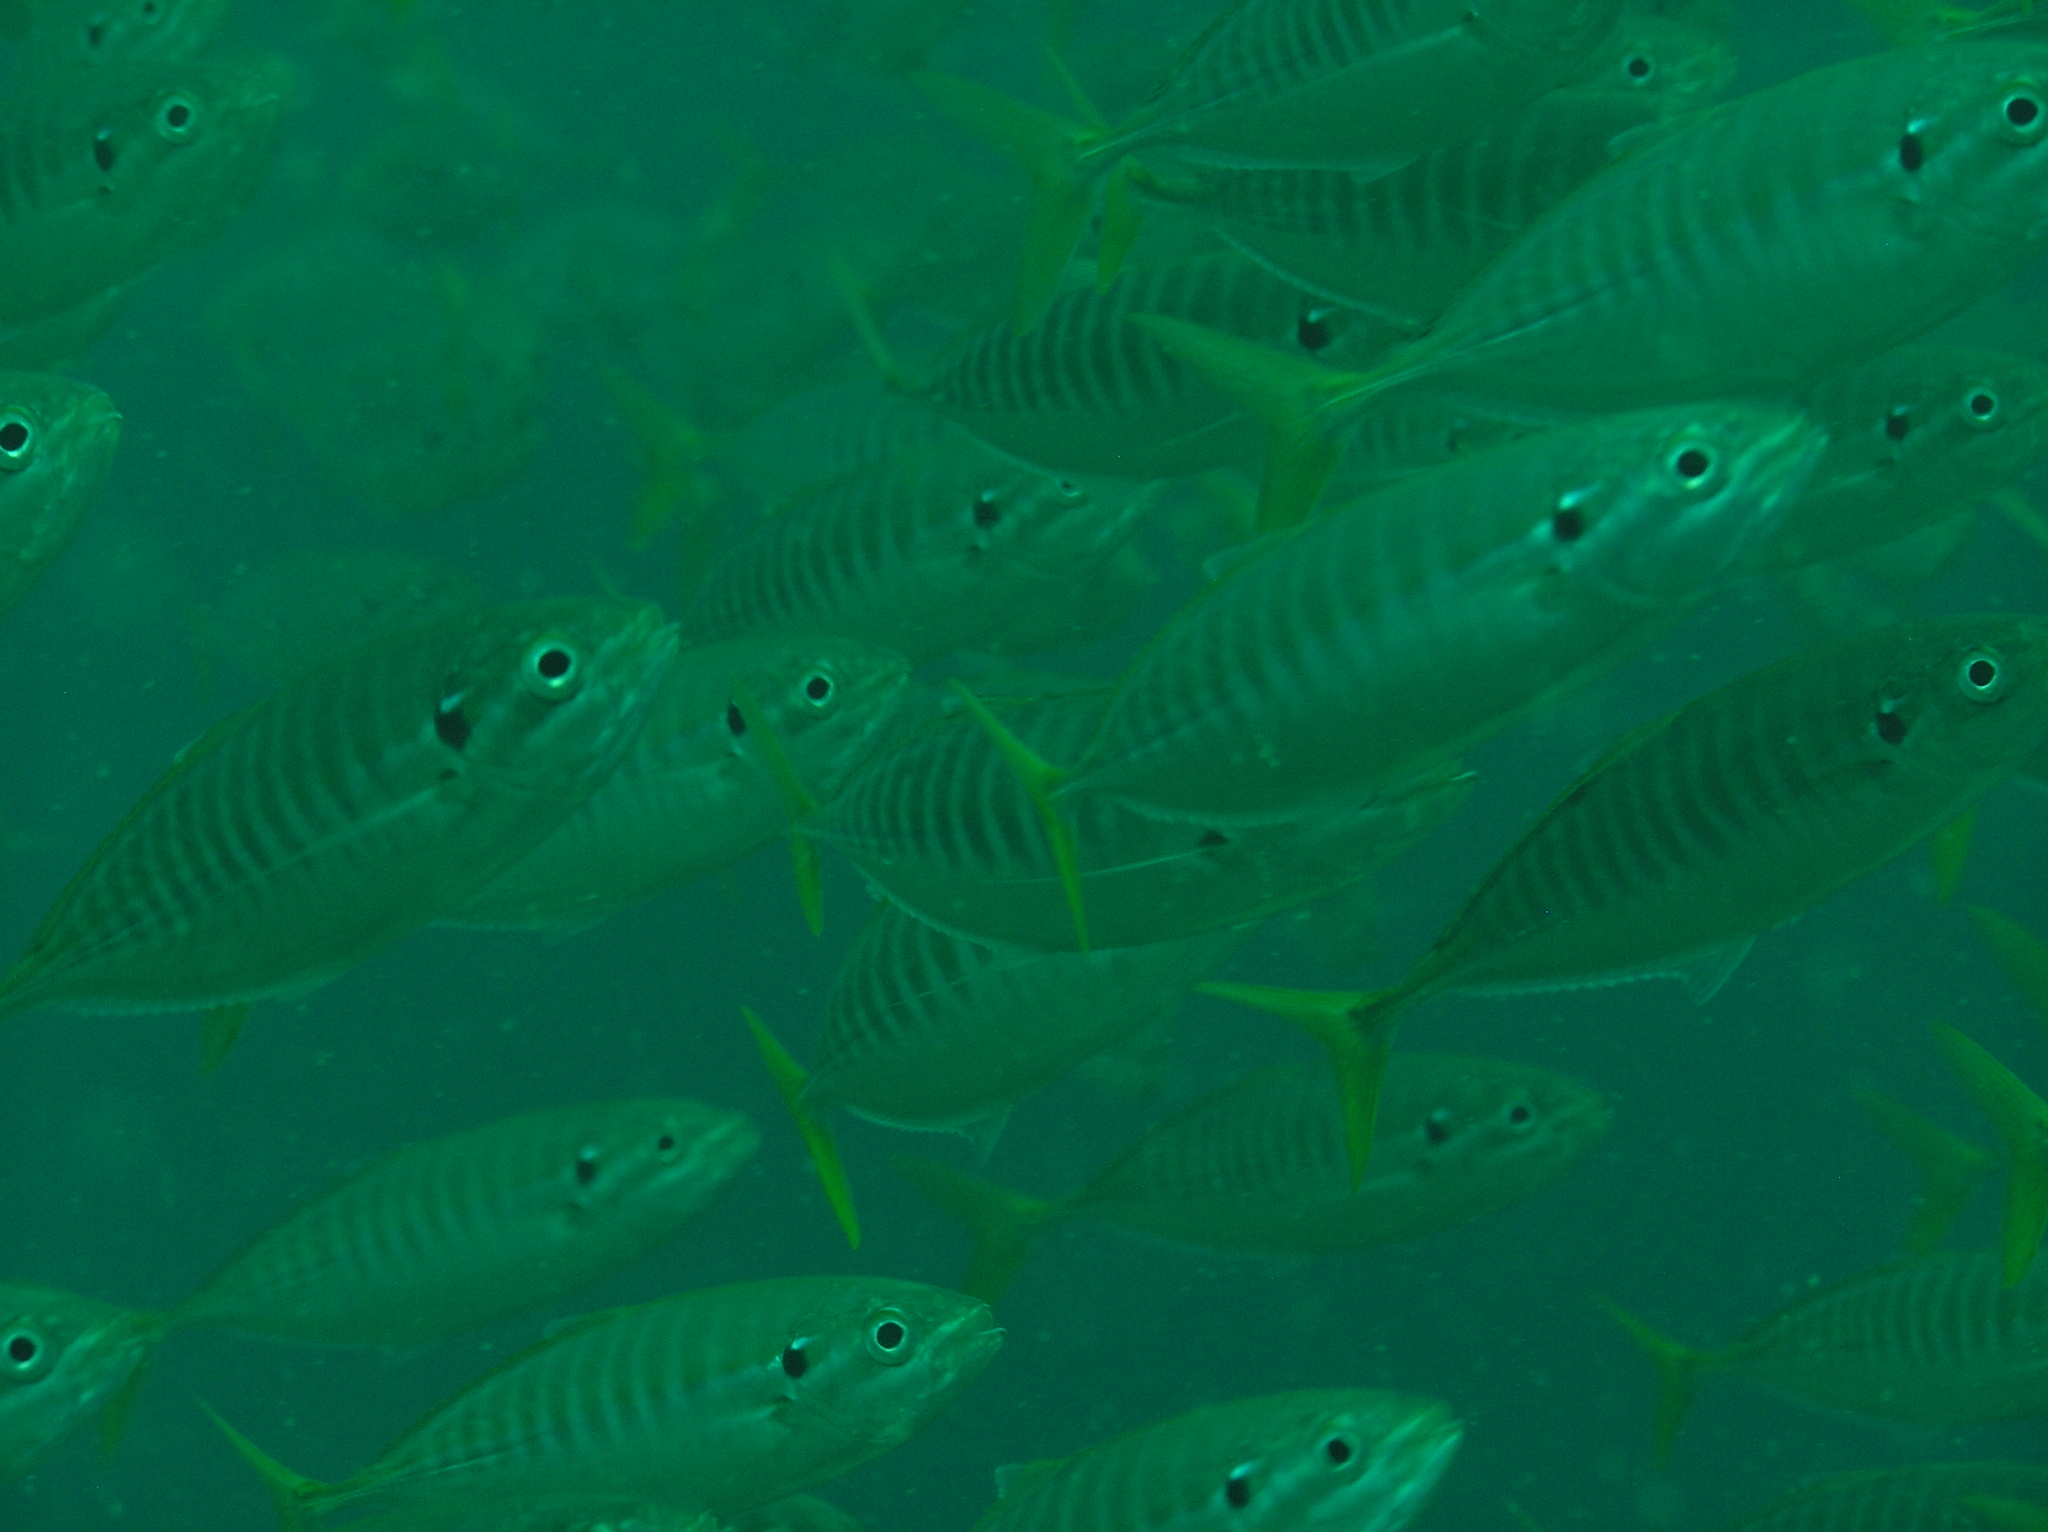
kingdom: Animalia
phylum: Chordata
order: Perciformes
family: Carangidae
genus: Atule
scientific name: Atule mate
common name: Yellowtail scad
